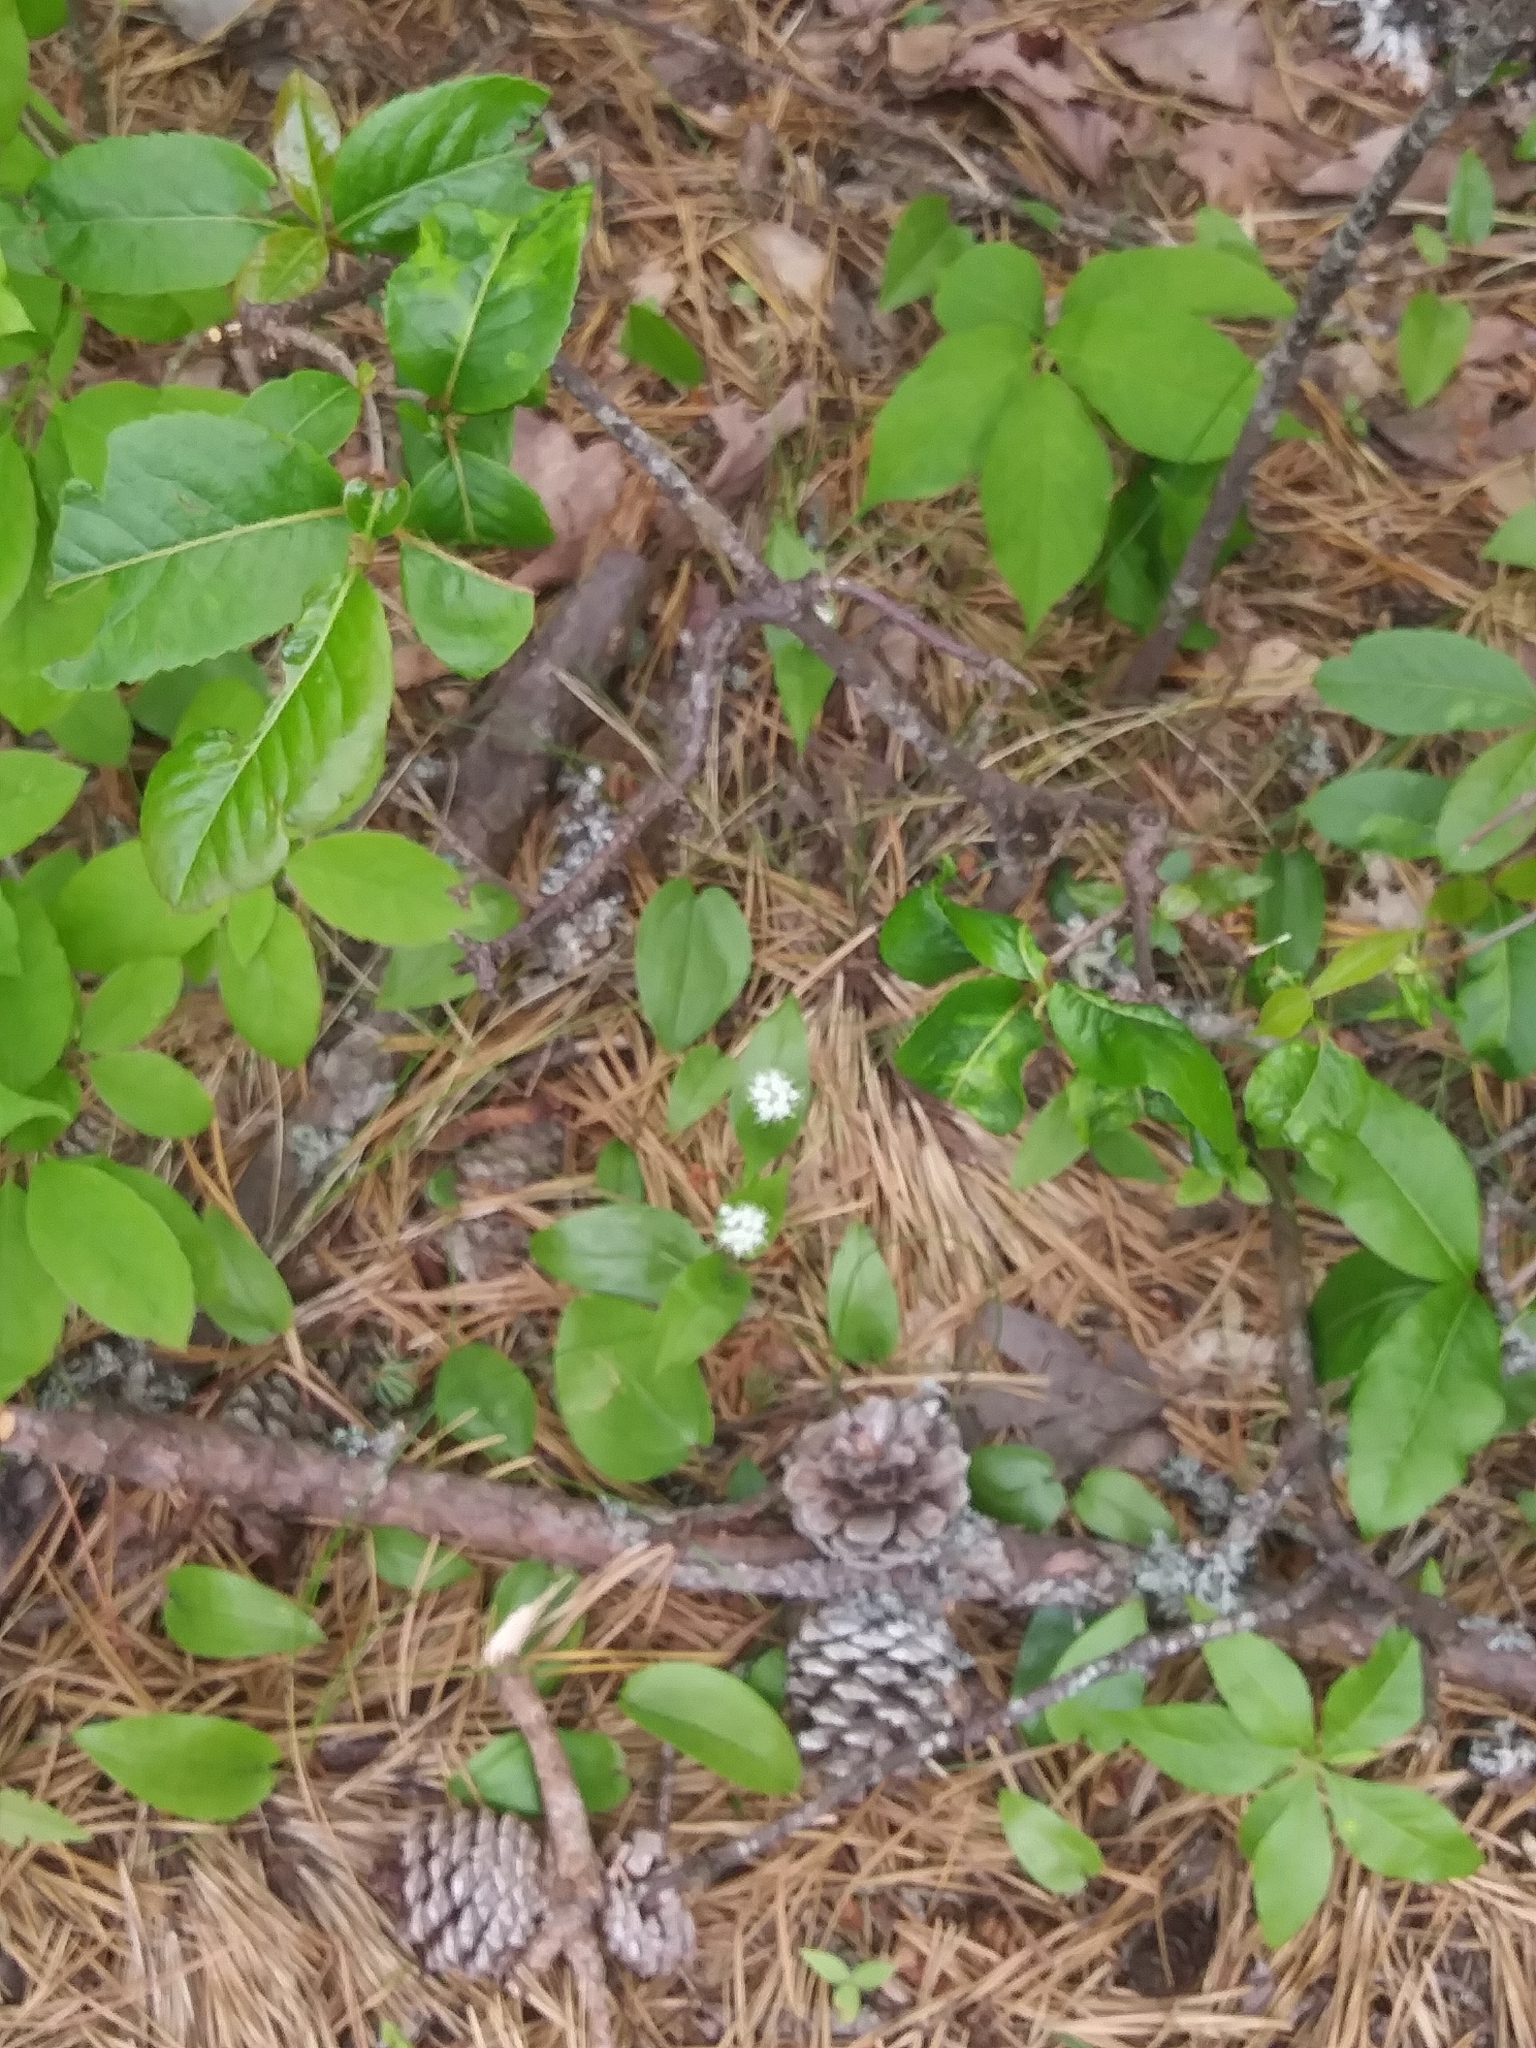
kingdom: Plantae
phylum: Tracheophyta
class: Liliopsida
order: Asparagales
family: Asparagaceae
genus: Maianthemum
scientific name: Maianthemum canadense
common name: False lily-of-the-valley
